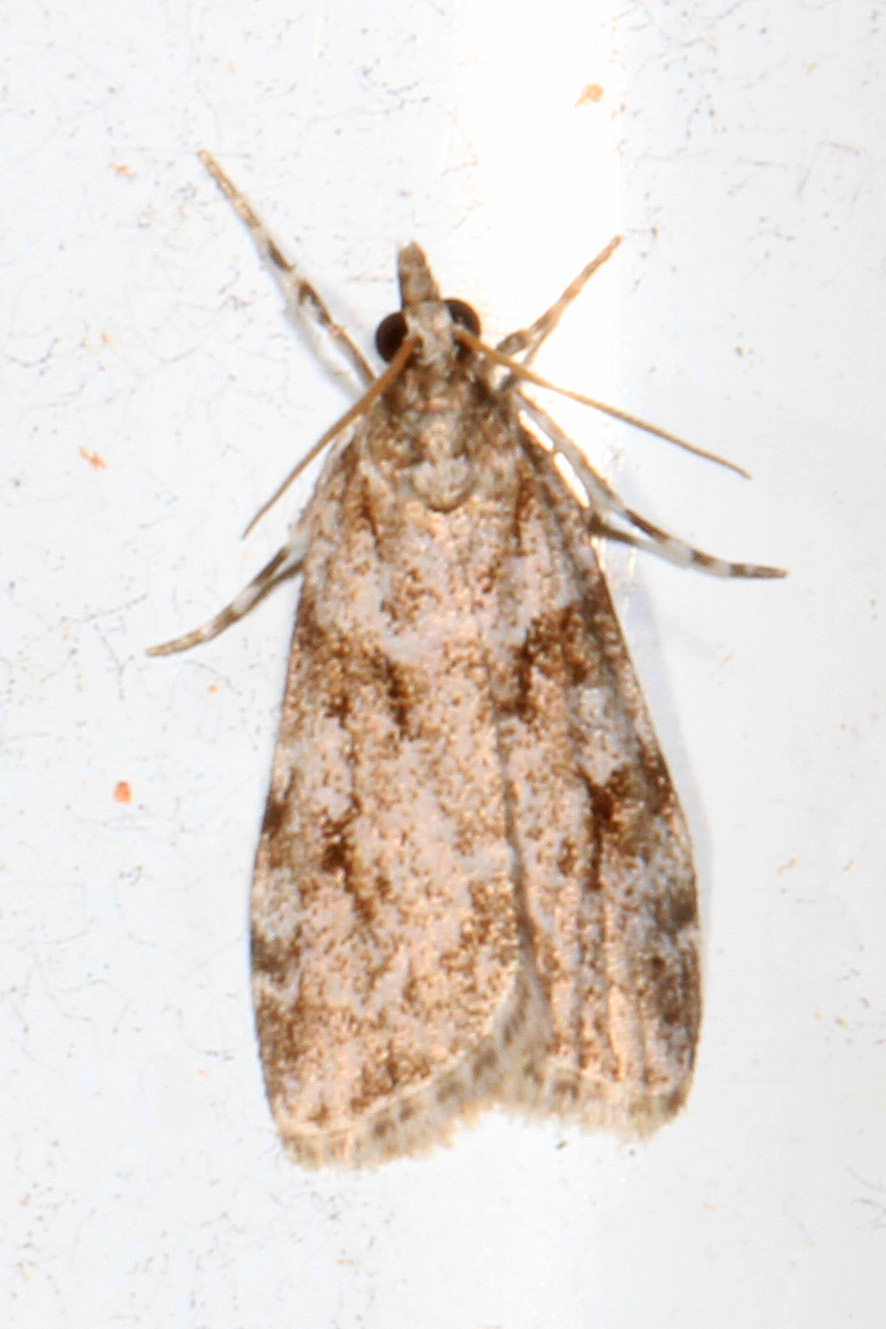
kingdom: Animalia
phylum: Arthropoda
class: Insecta
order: Lepidoptera
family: Crambidae
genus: Scoparia
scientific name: Scoparia biplagialis
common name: Double-striped scoparia moth
